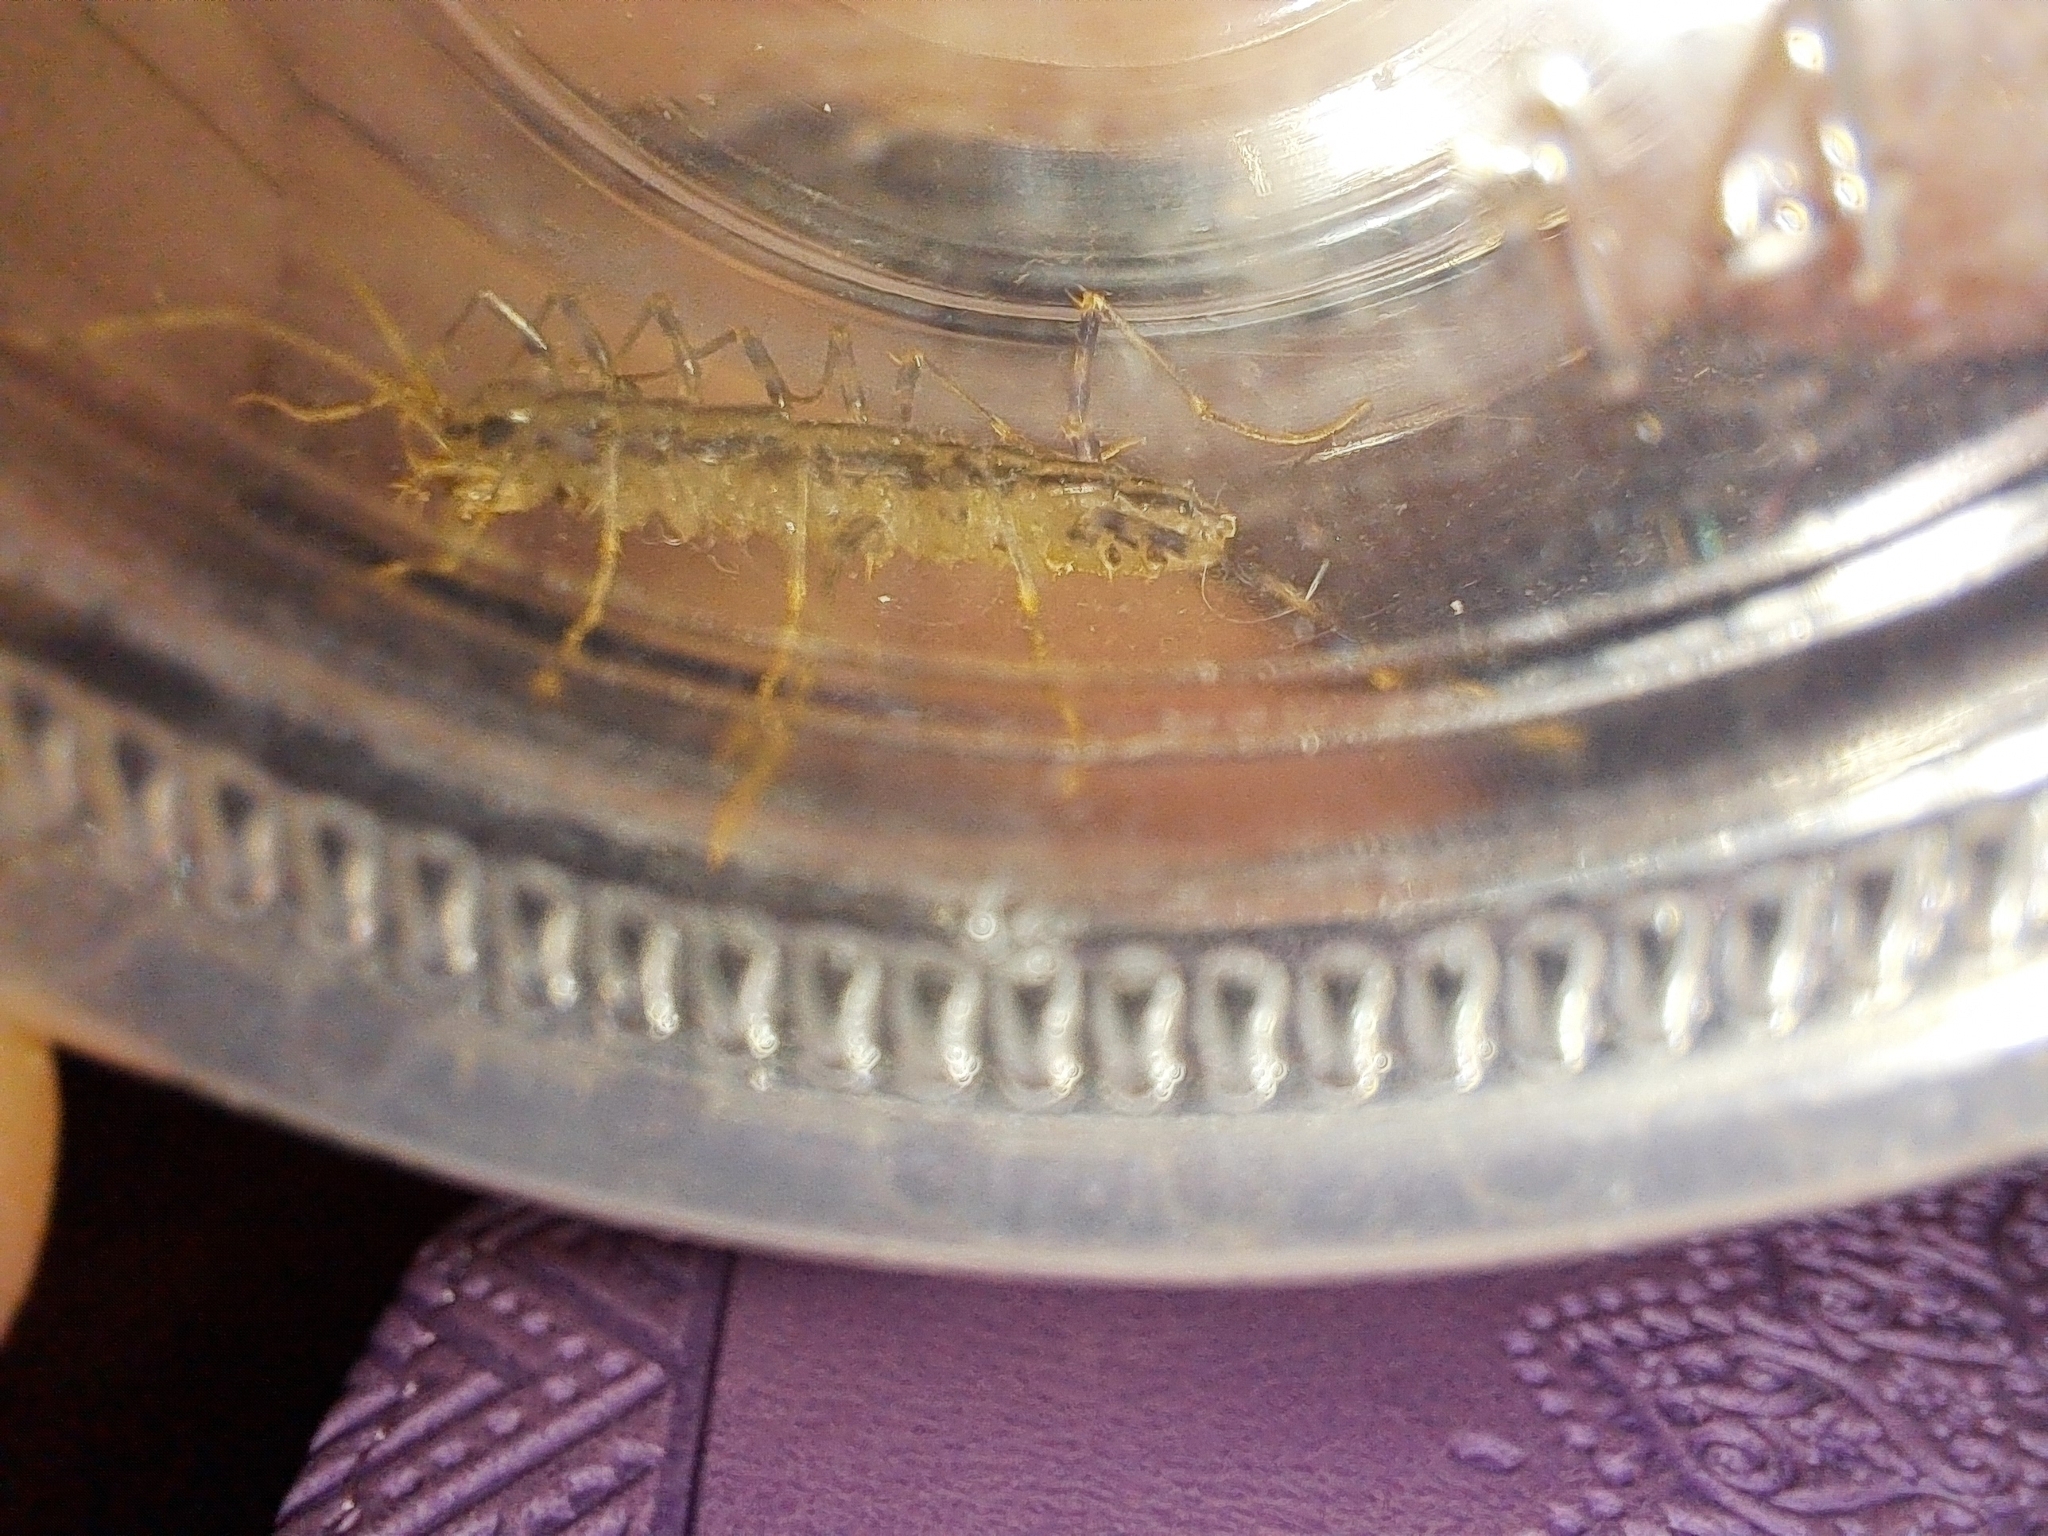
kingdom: Animalia
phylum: Arthropoda
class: Chilopoda
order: Scutigeromorpha
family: Scutigeridae
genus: Scutigera
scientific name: Scutigera coleoptrata
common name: House centipede
